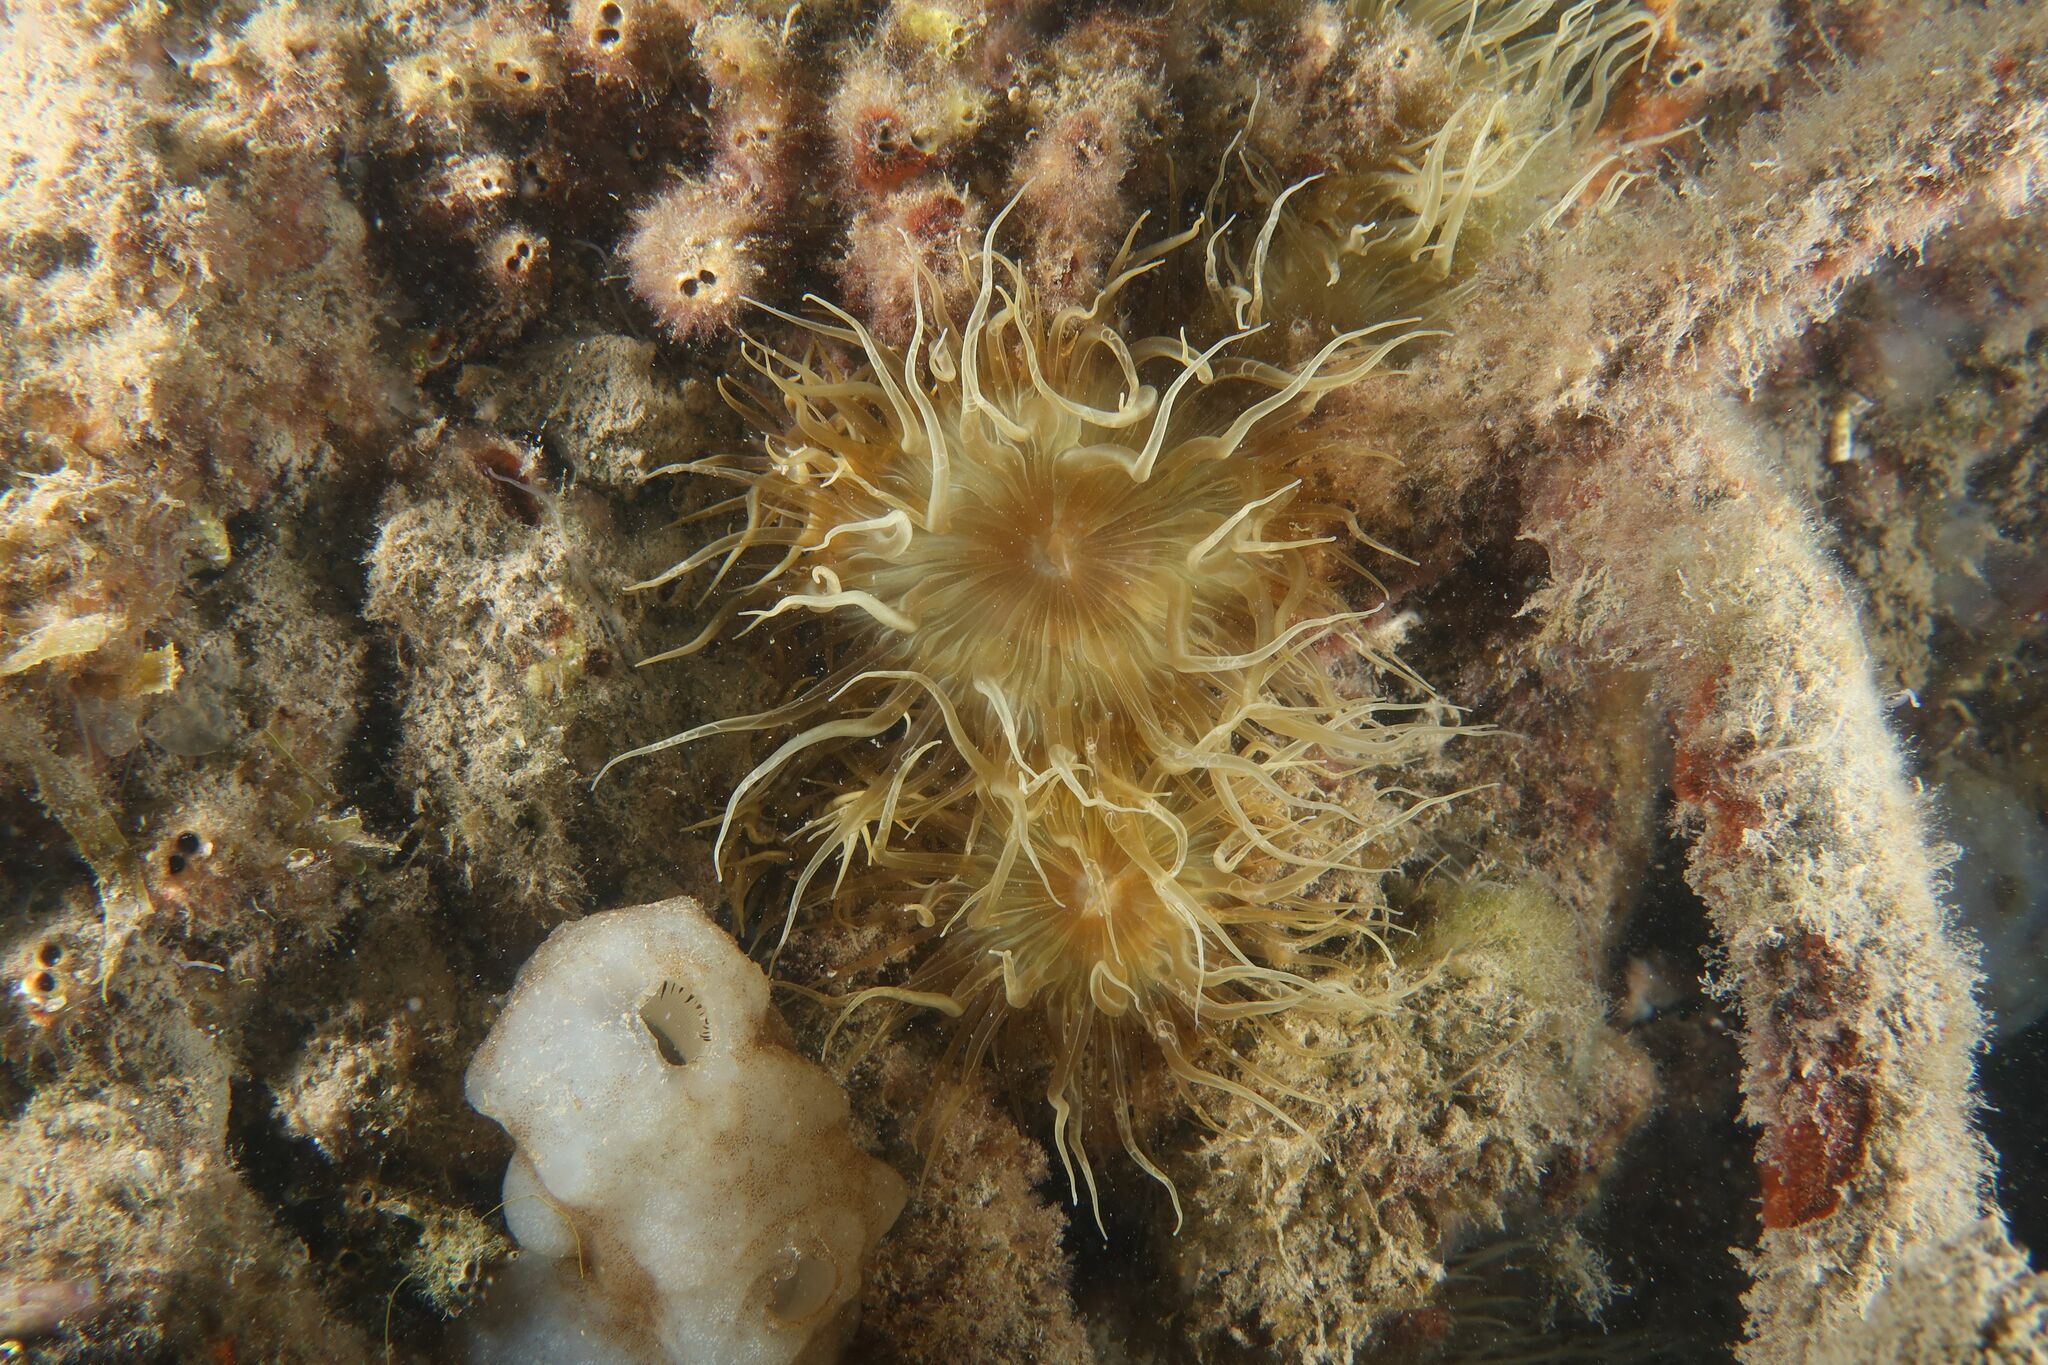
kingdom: Animalia
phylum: Cnidaria
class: Anthozoa
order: Actiniaria
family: Aiptasiidae
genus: Aiptasia
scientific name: Aiptasia couchii
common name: Trumpet anemone
